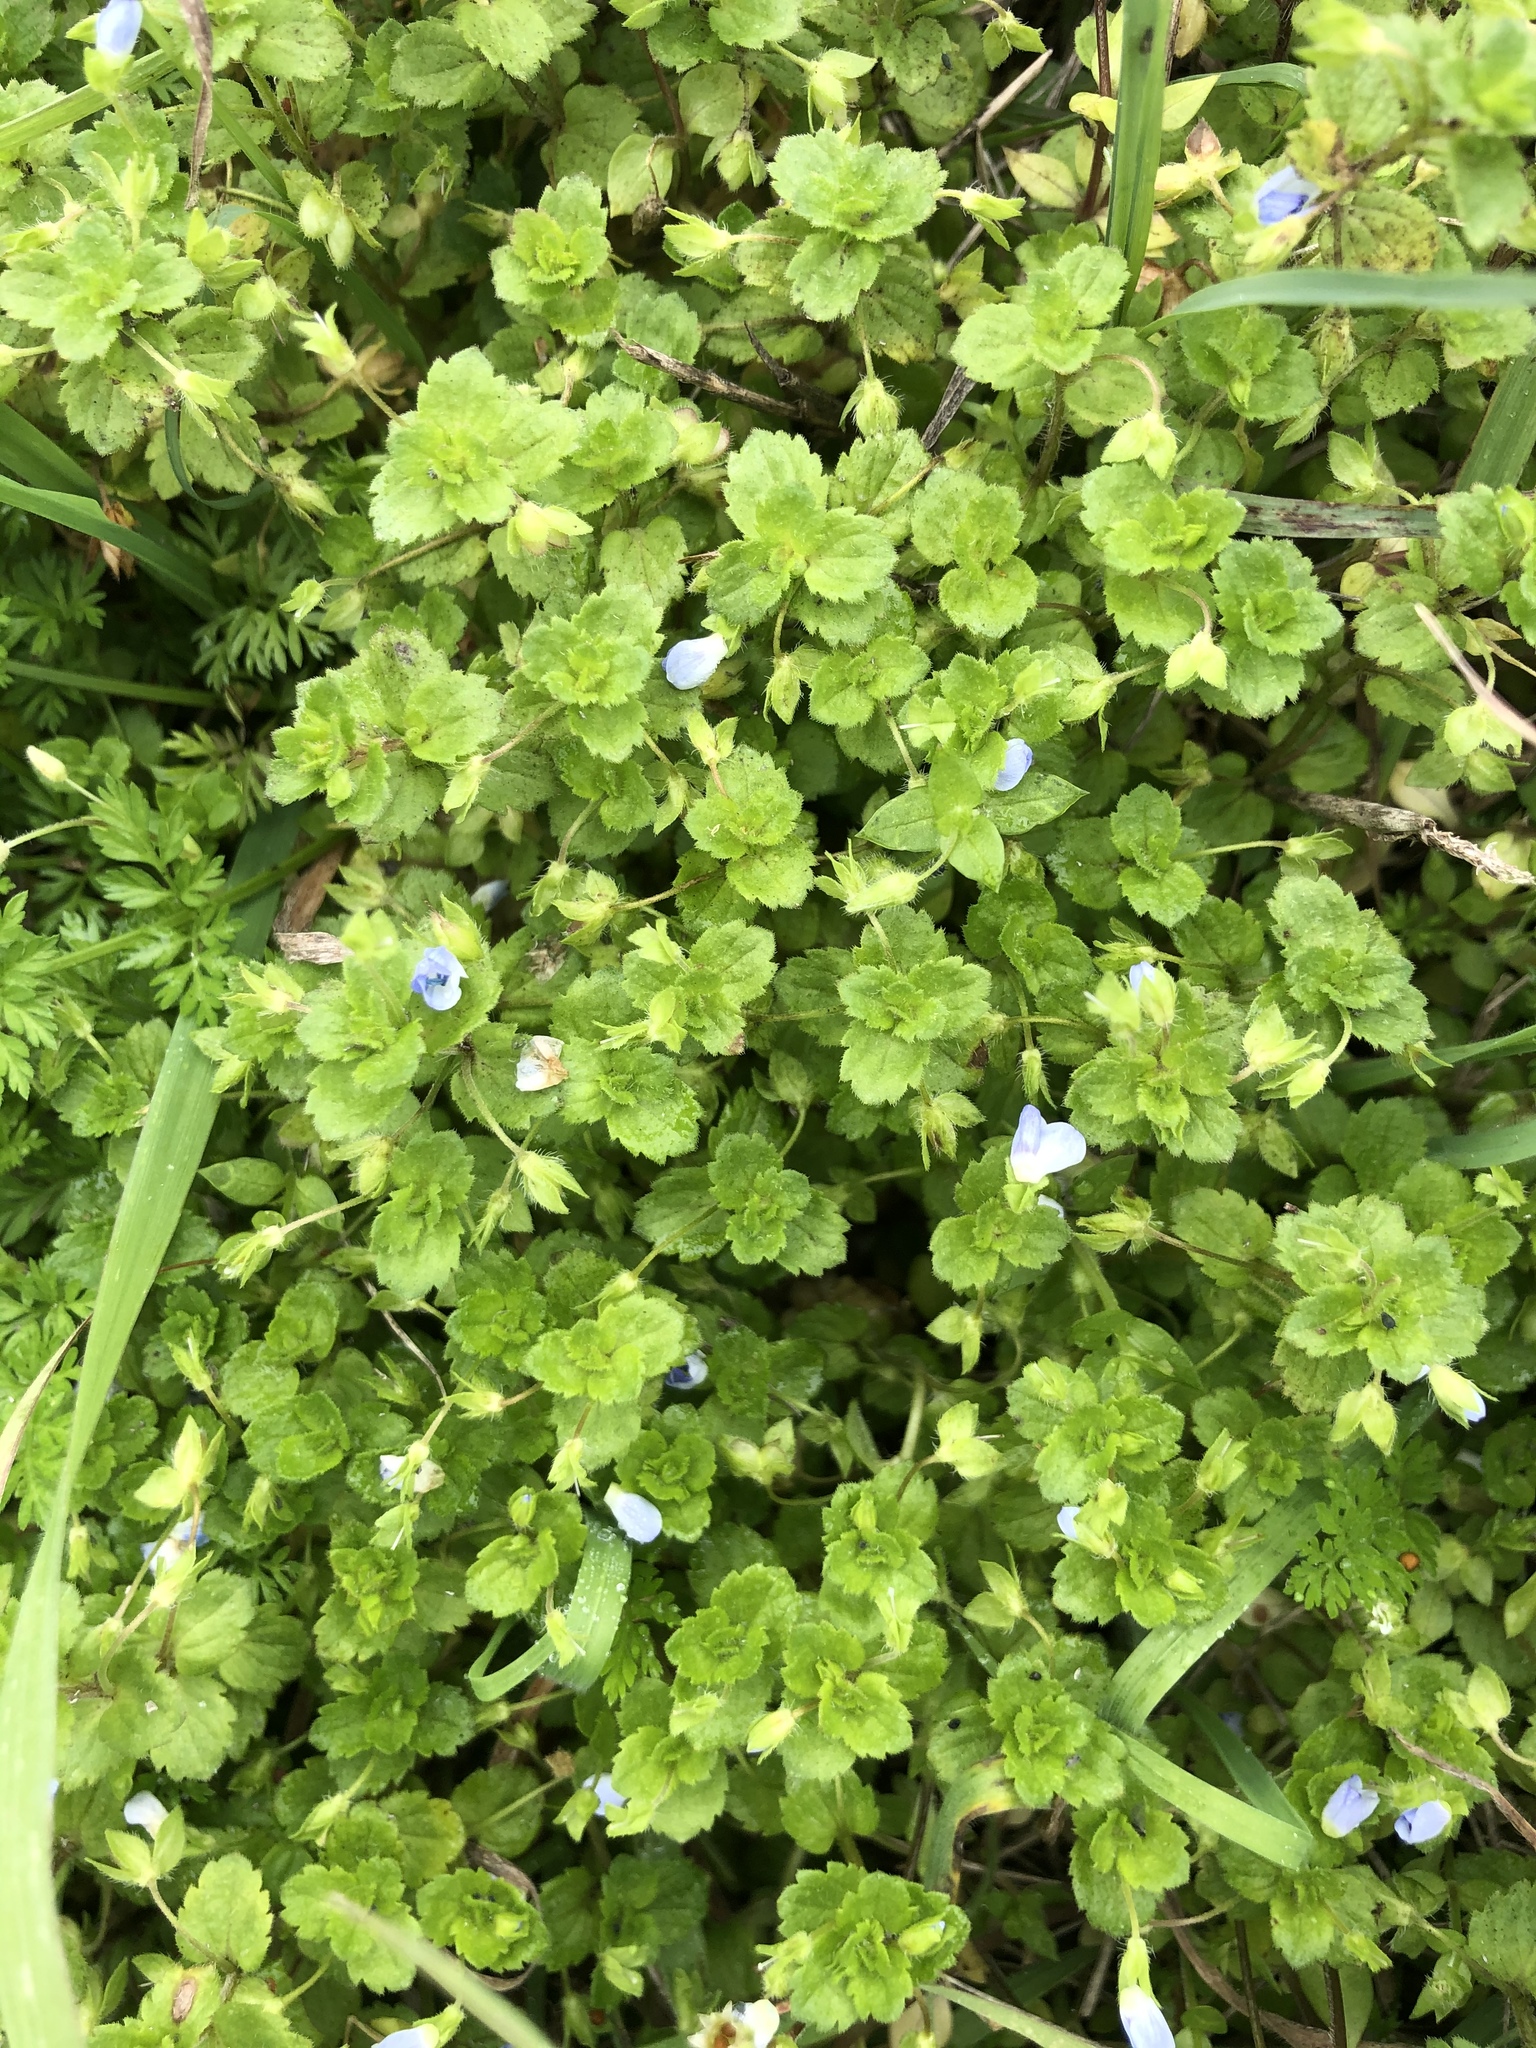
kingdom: Plantae
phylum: Tracheophyta
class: Magnoliopsida
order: Lamiales
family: Plantaginaceae
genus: Veronica
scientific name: Veronica persica
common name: Common field-speedwell
